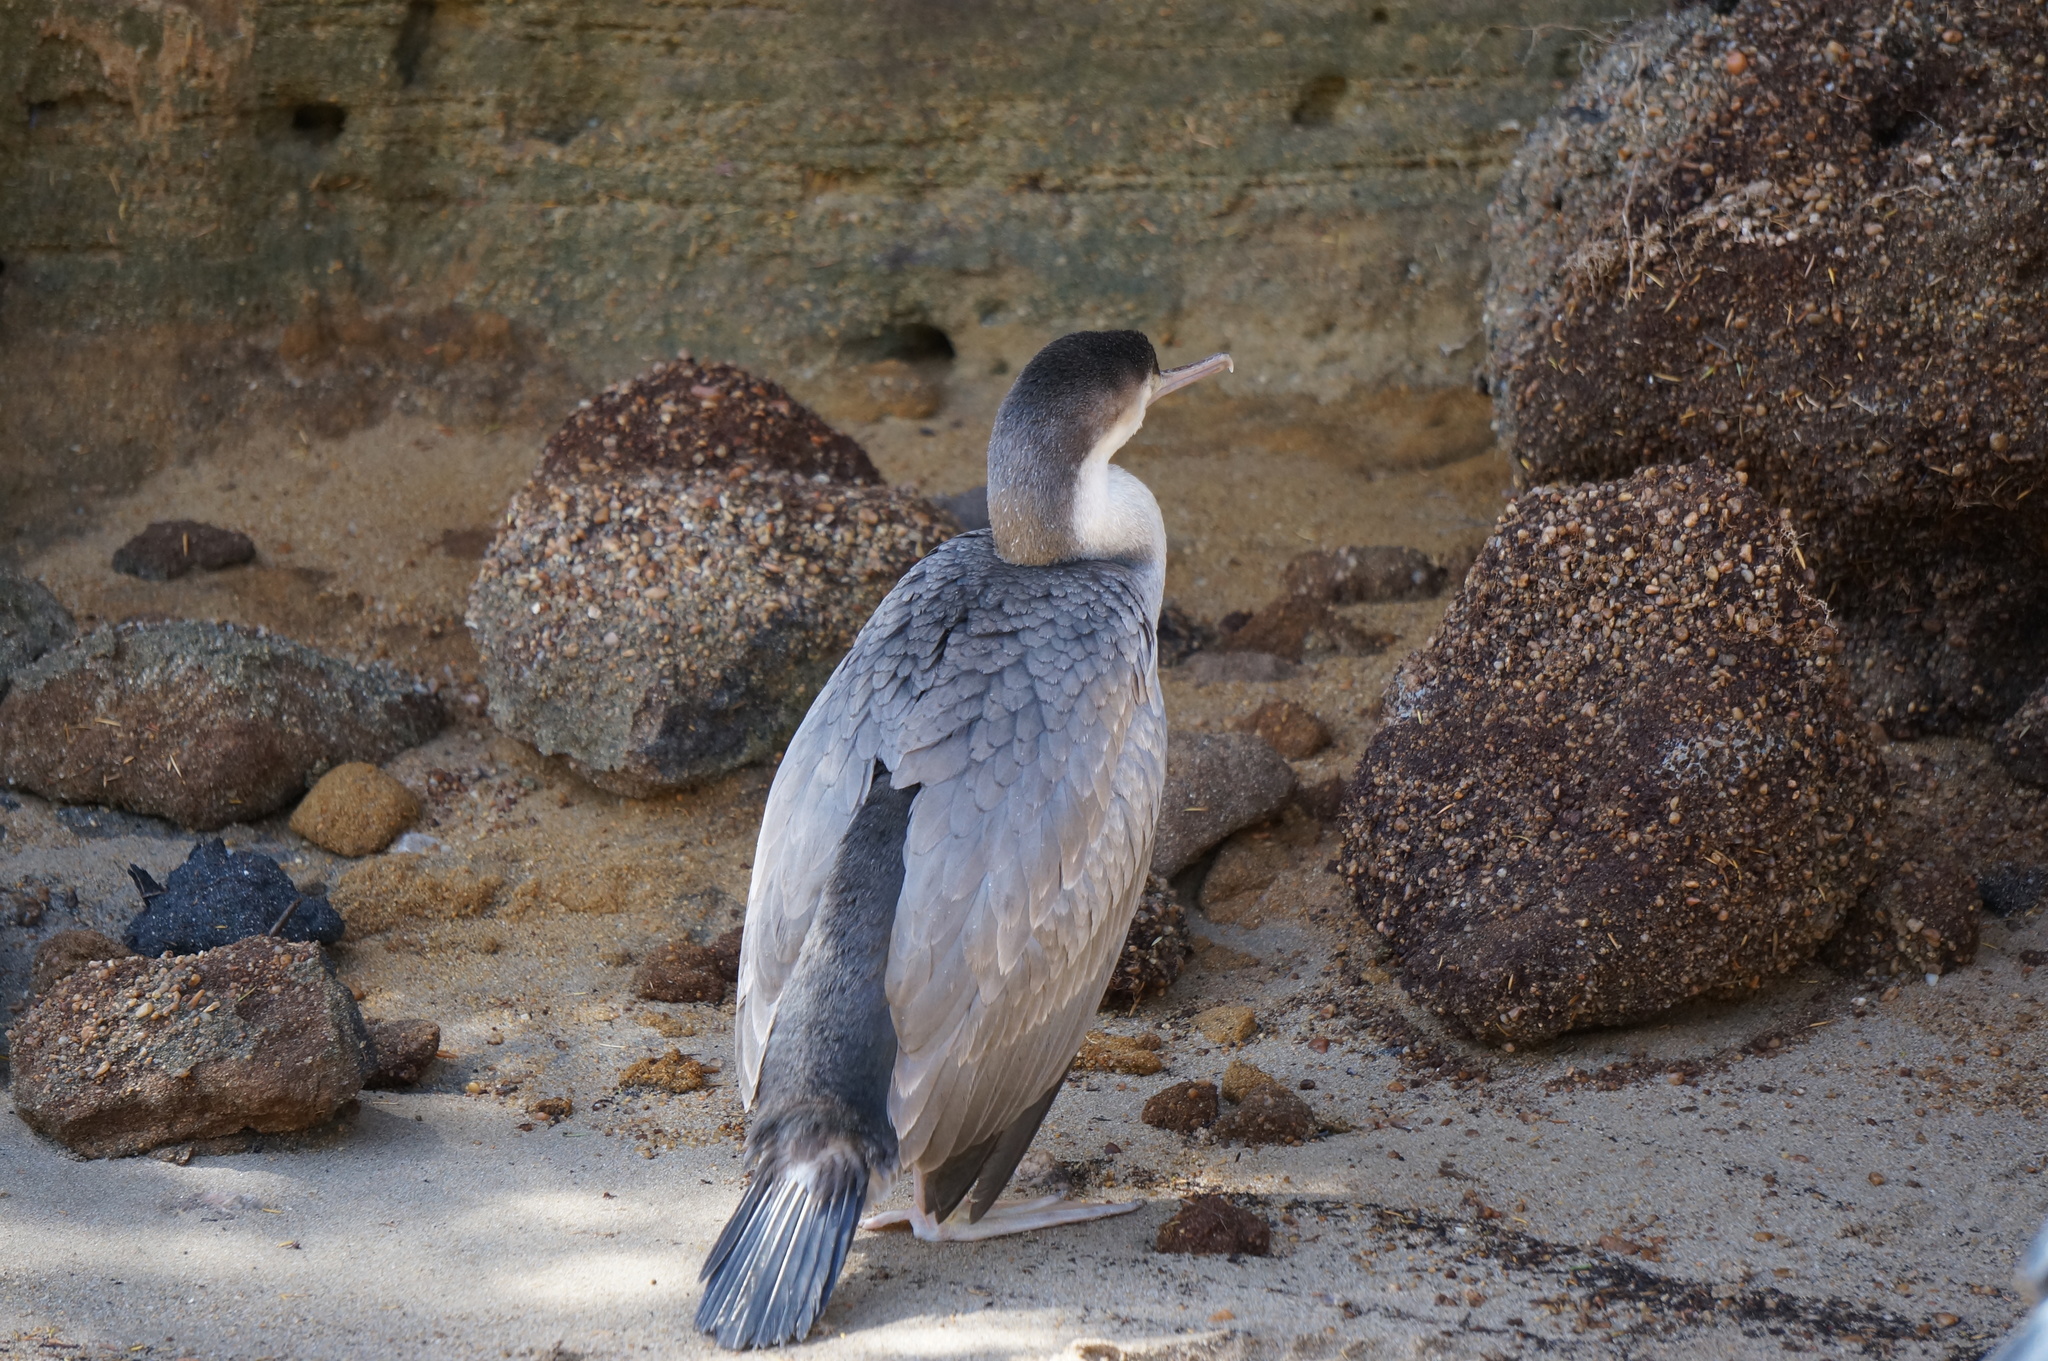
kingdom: Animalia
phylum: Chordata
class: Aves
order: Suliformes
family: Phalacrocoracidae
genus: Phalacrocorax
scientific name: Phalacrocorax punctatus
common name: Spotted shag
